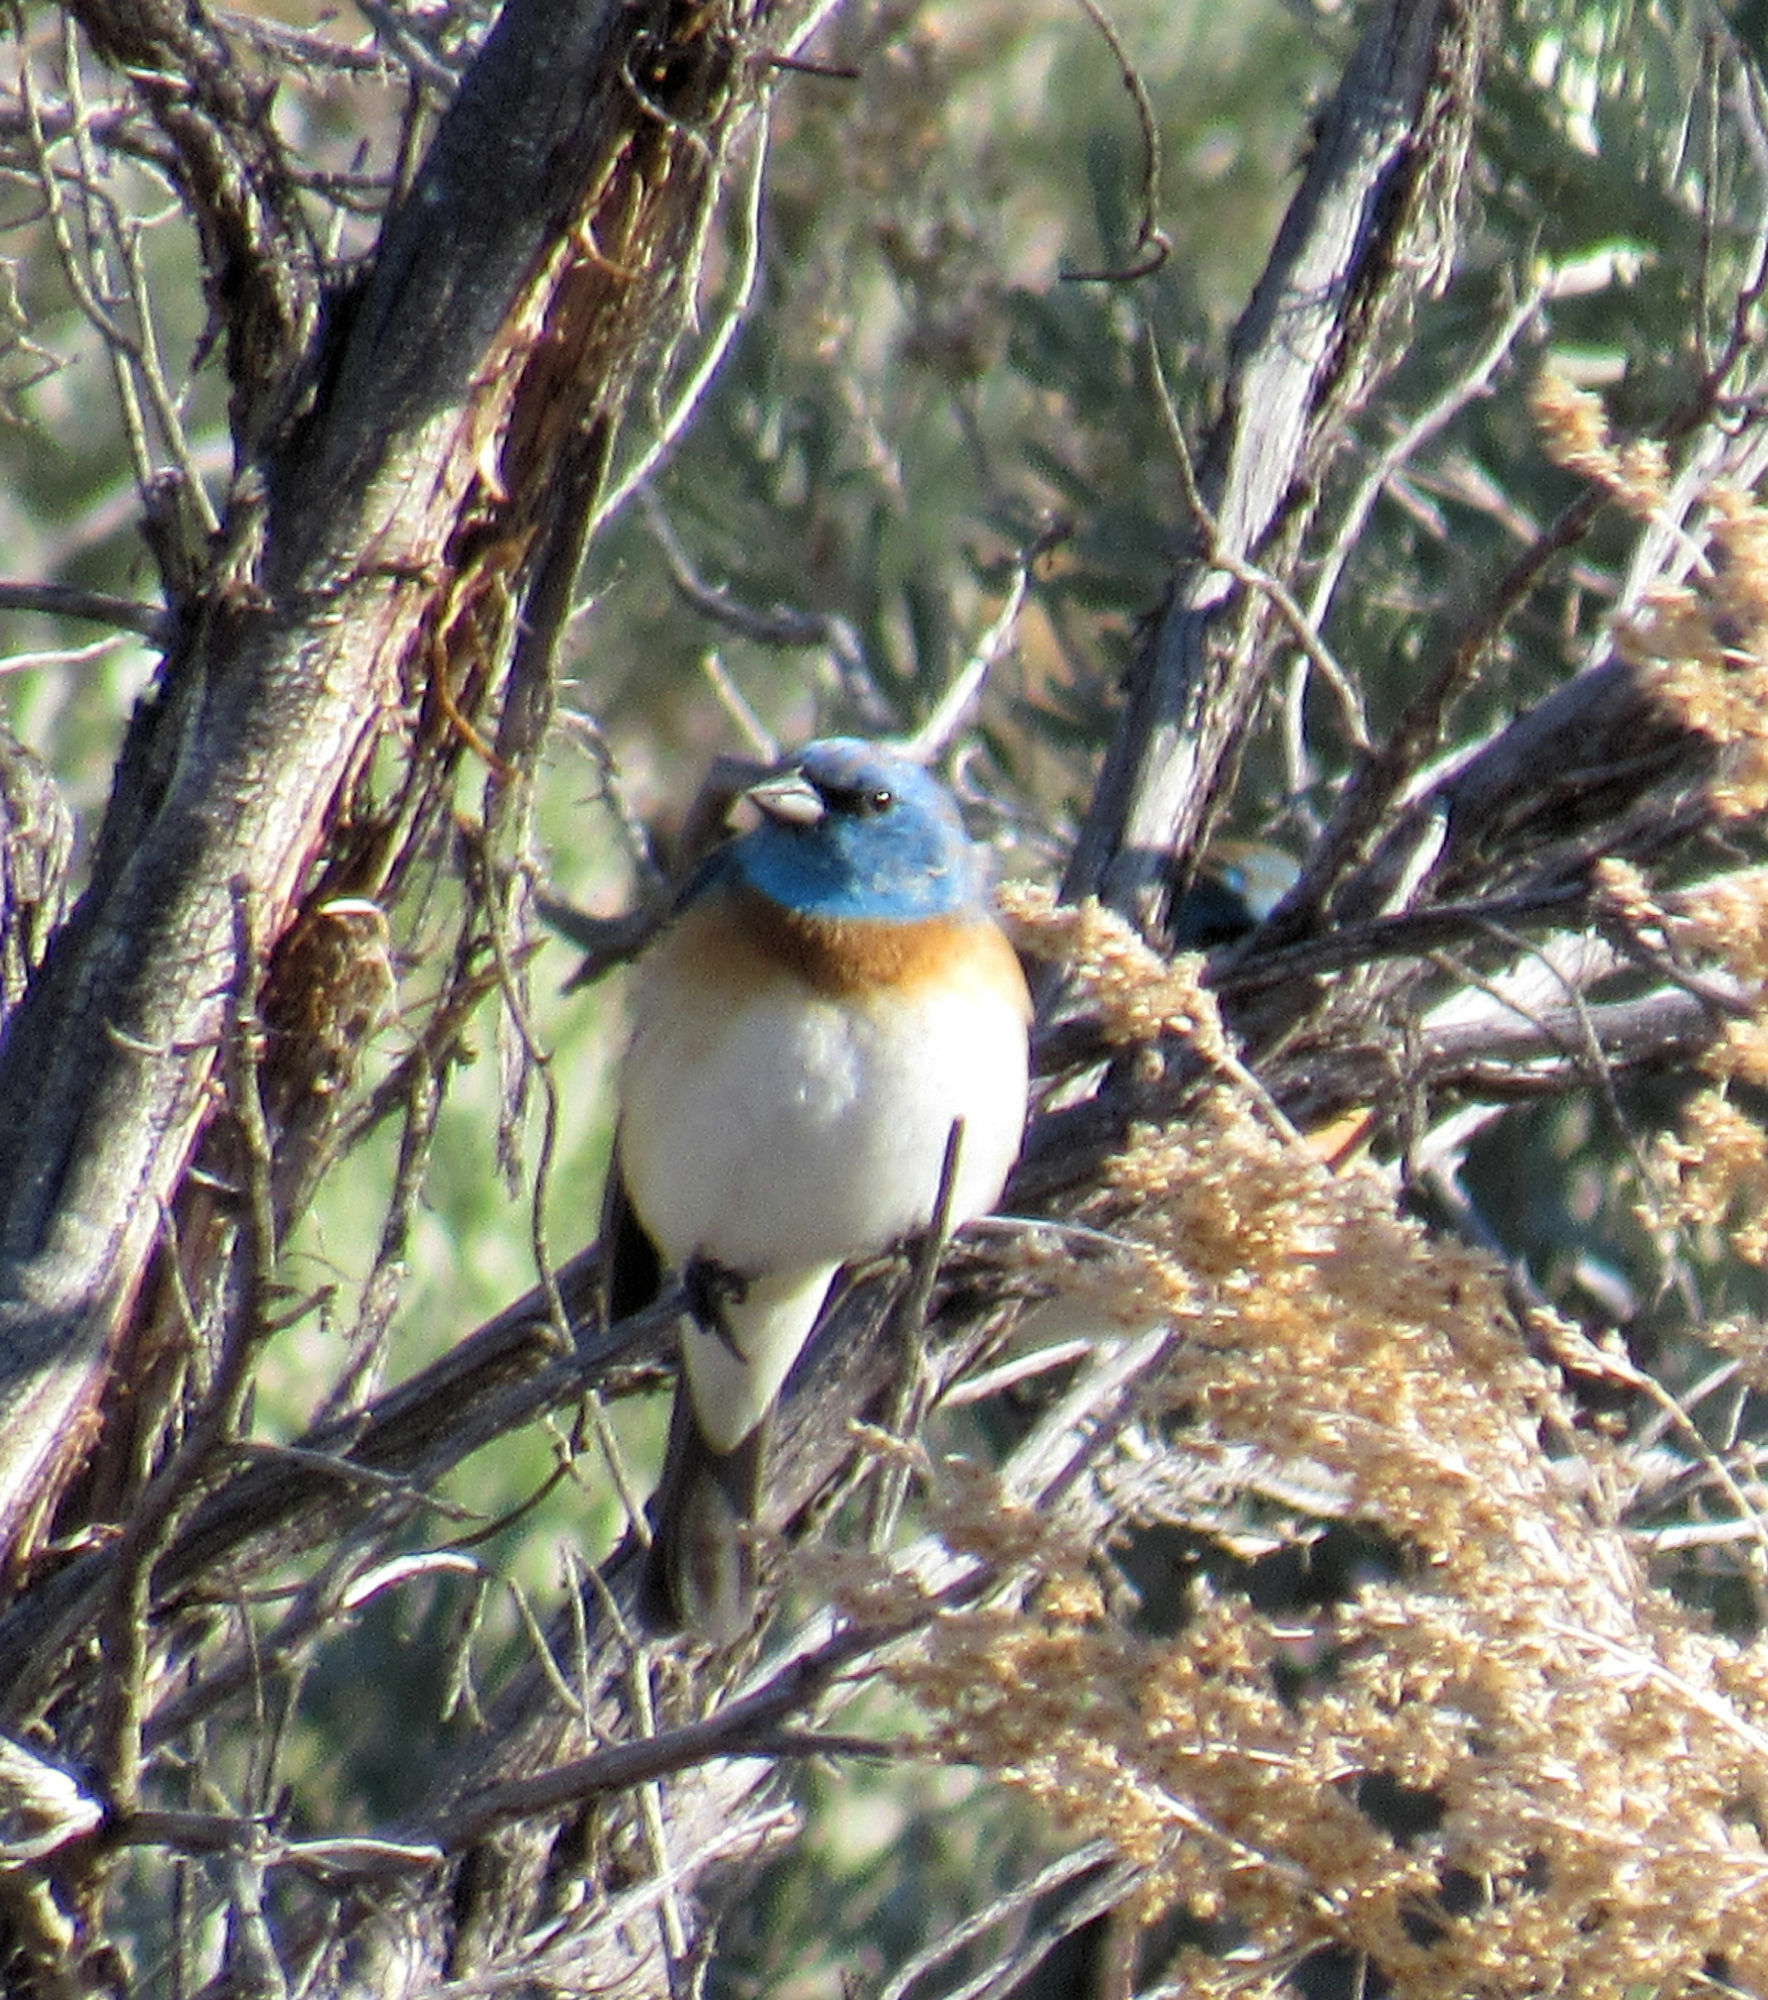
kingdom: Animalia
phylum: Chordata
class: Aves
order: Passeriformes
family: Cardinalidae
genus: Passerina
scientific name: Passerina amoena
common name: Lazuli bunting
